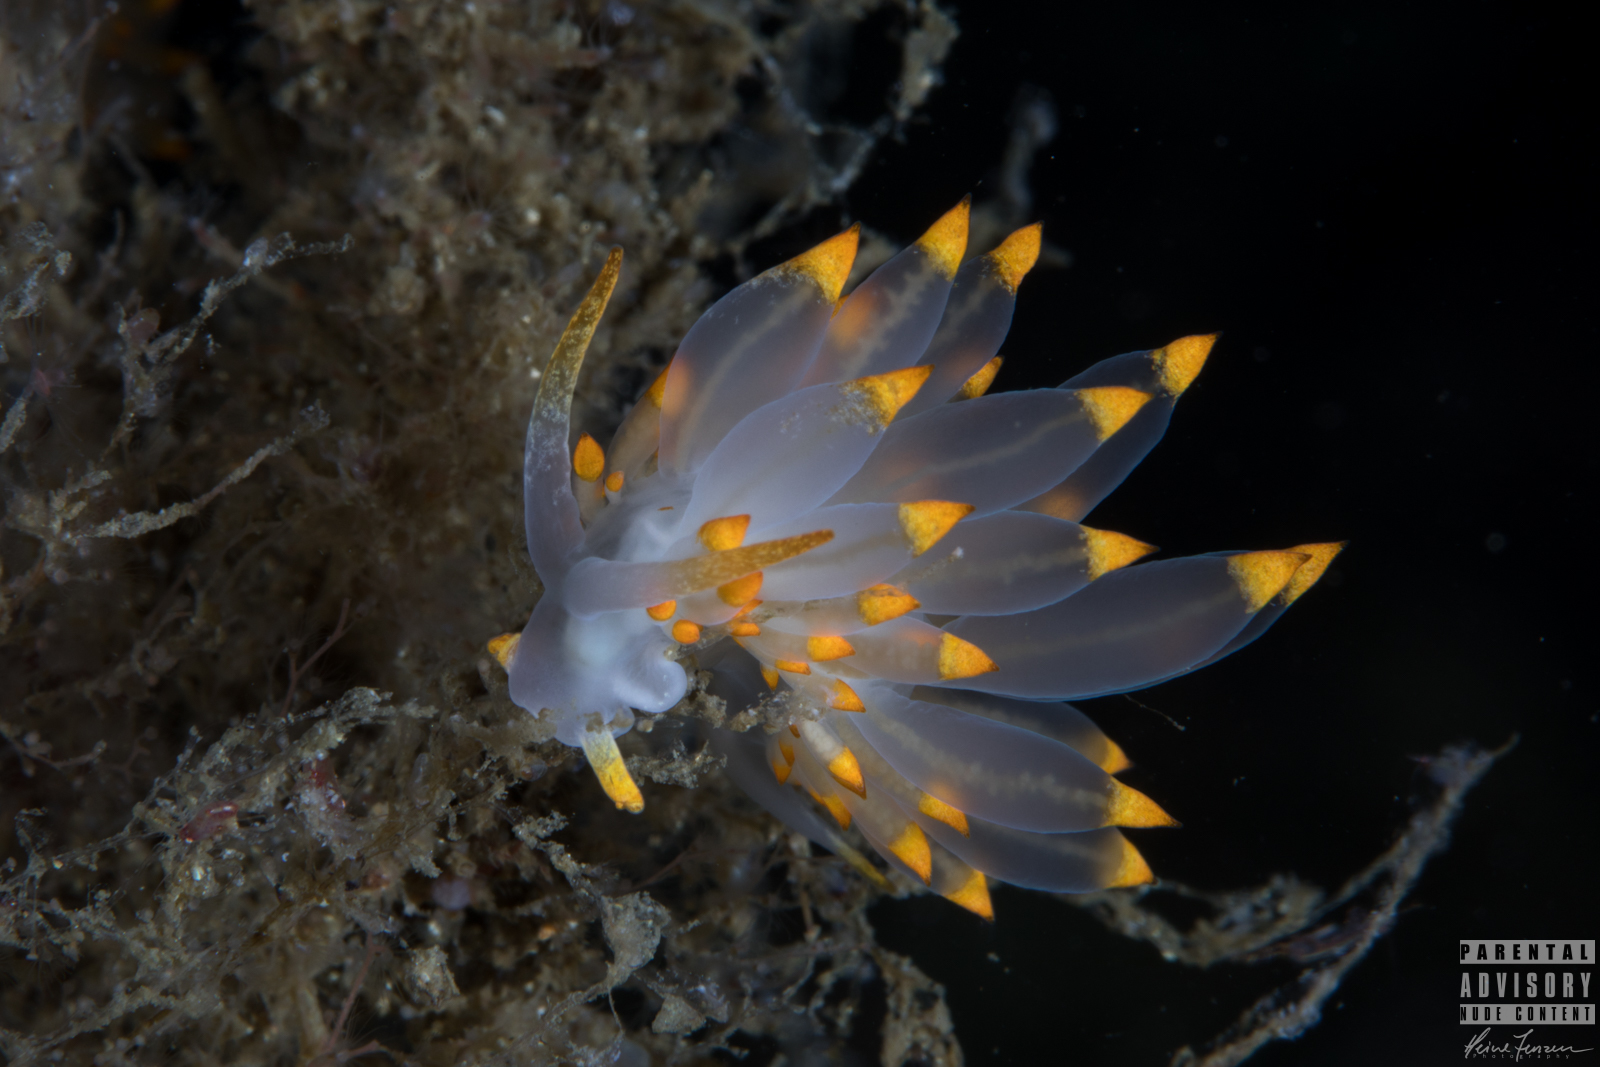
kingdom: Animalia
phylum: Mollusca
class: Gastropoda
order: Nudibranchia
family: Eubranchidae
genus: Amphorina
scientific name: Amphorina farrani
